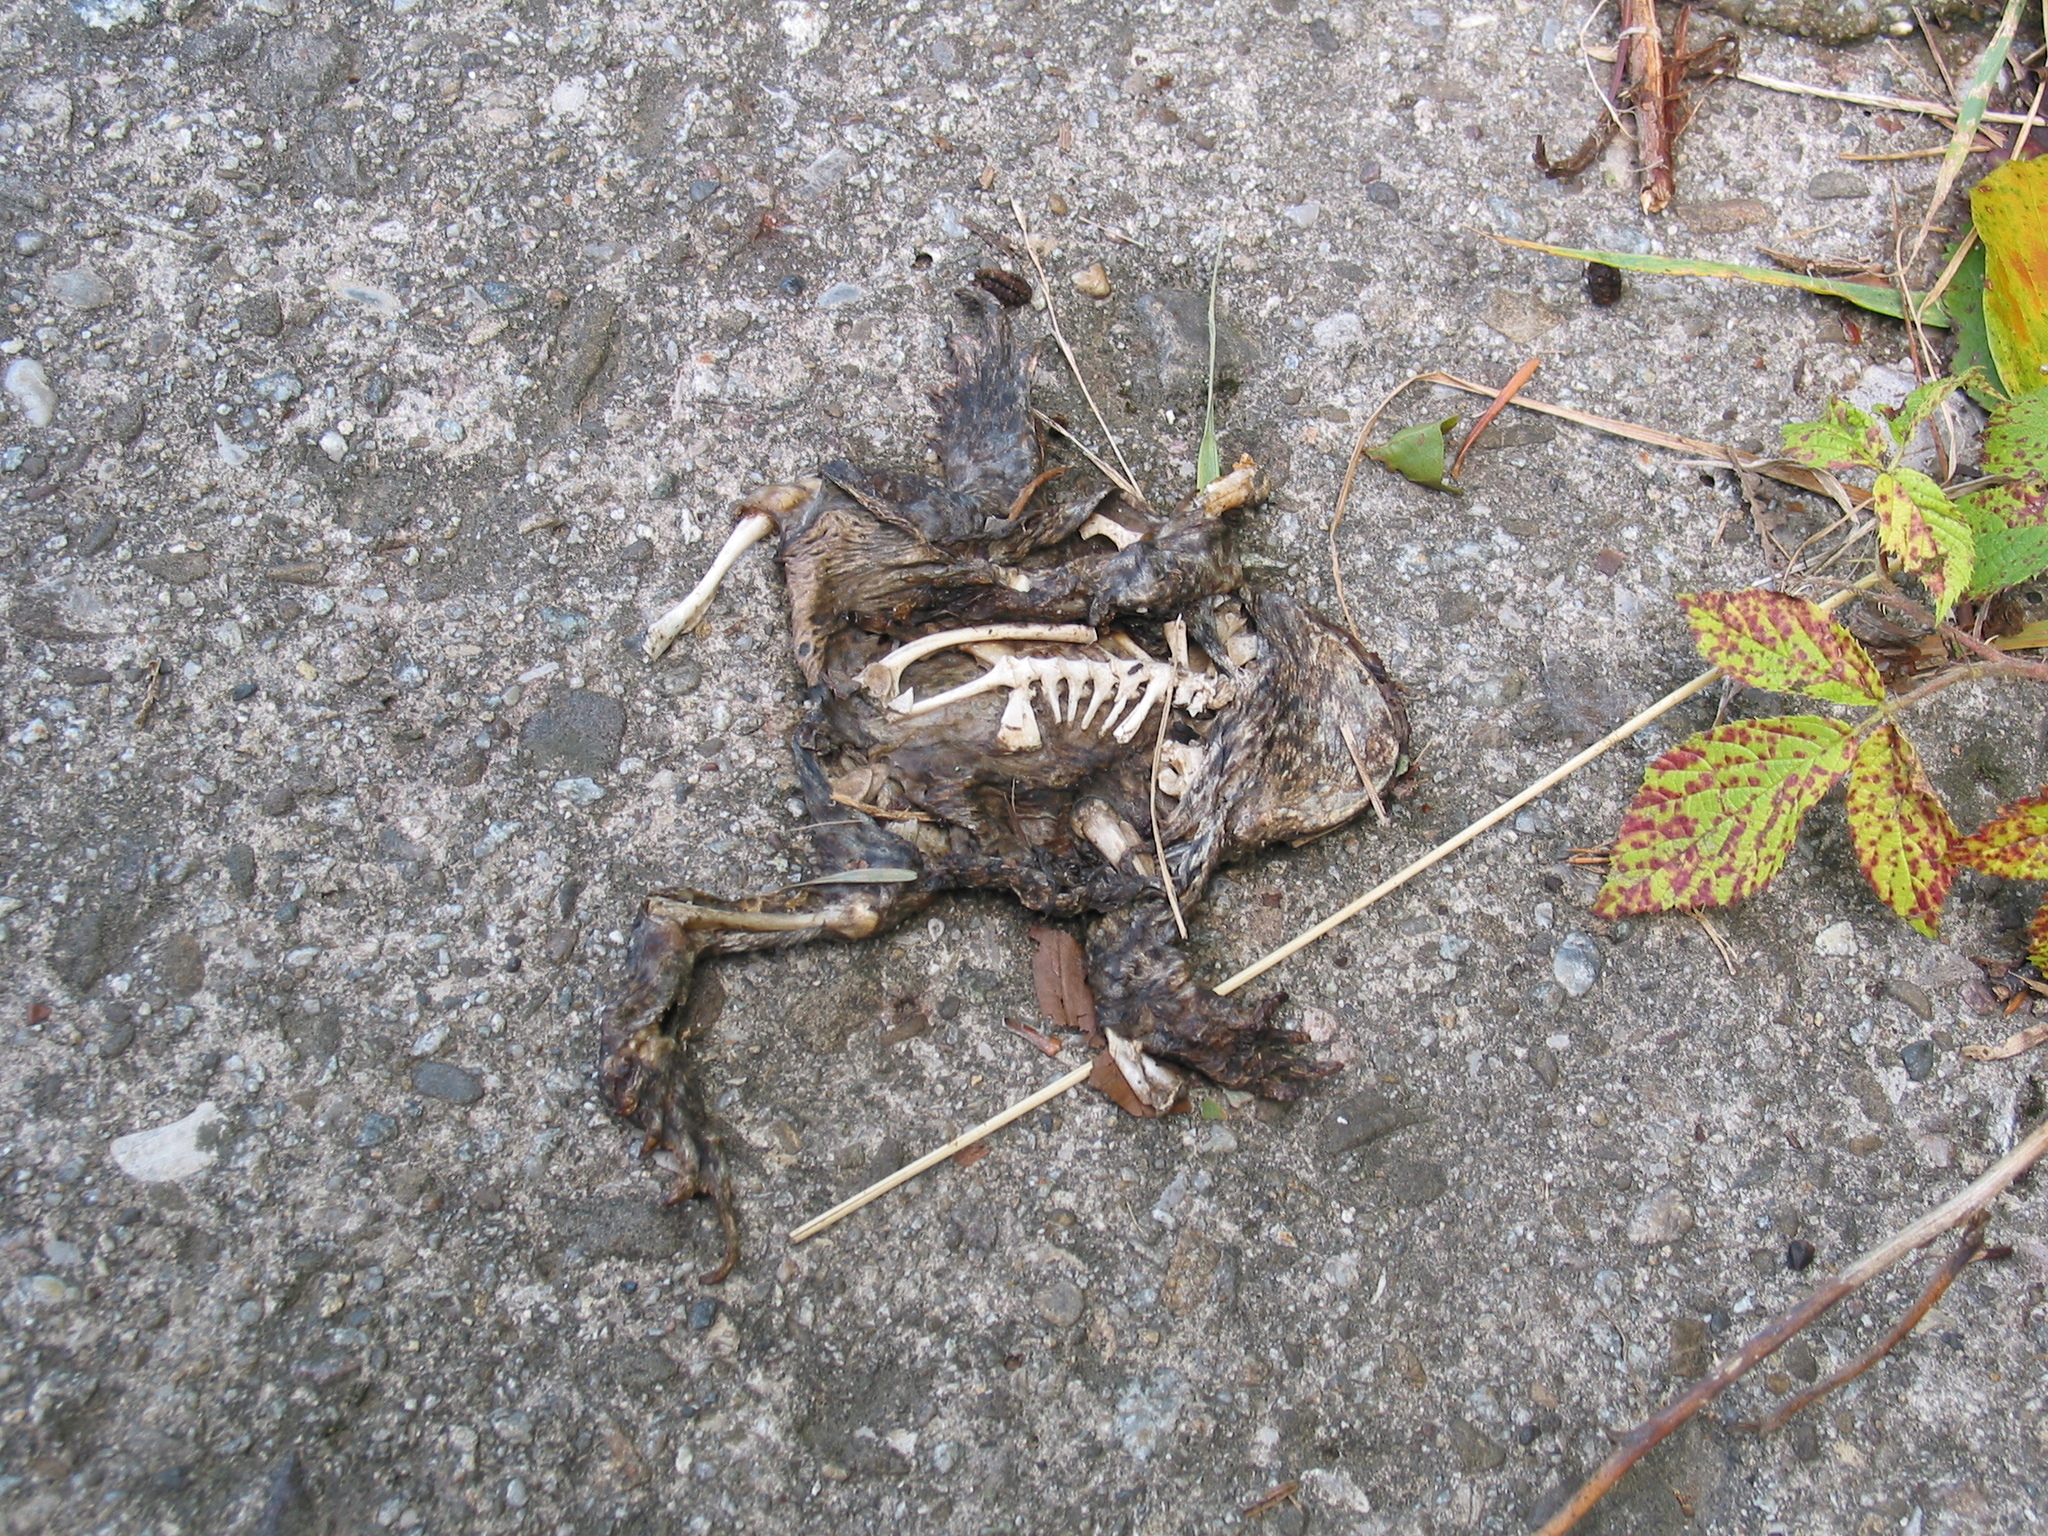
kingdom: Animalia
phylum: Chordata
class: Amphibia
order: Anura
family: Bufonidae
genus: Bufo
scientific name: Bufo bufo
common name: Common toad
